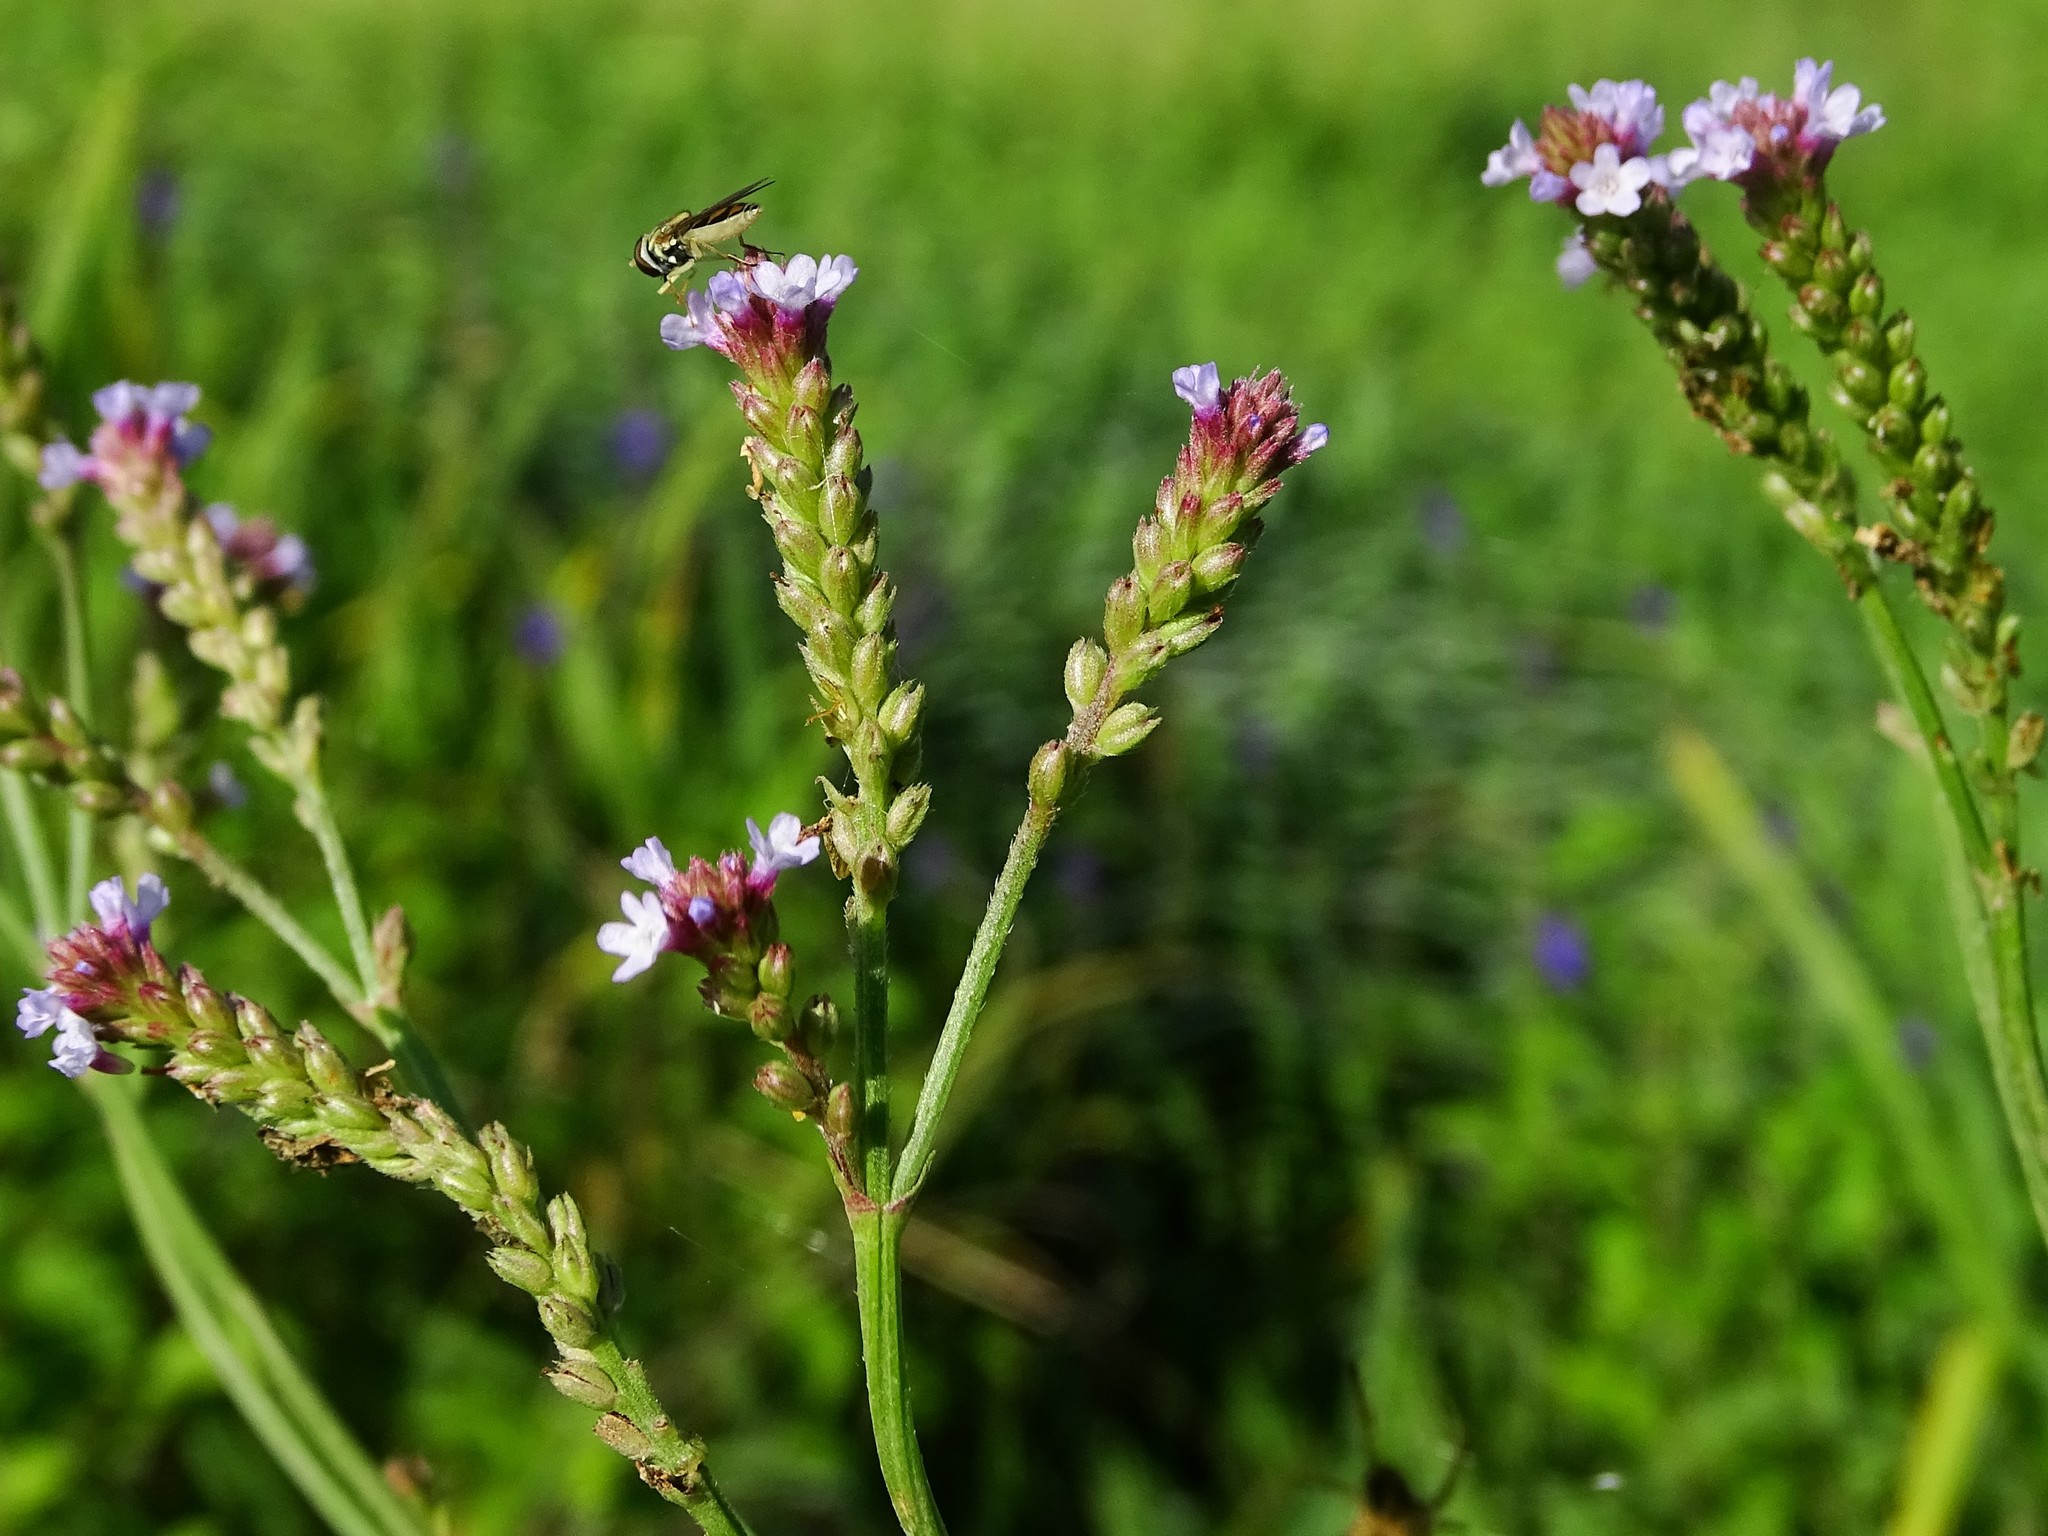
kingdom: Plantae
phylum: Tracheophyta
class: Magnoliopsida
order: Lamiales
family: Verbenaceae
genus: Verbena
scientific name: Verbena litoralis
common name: Seashore vervain
